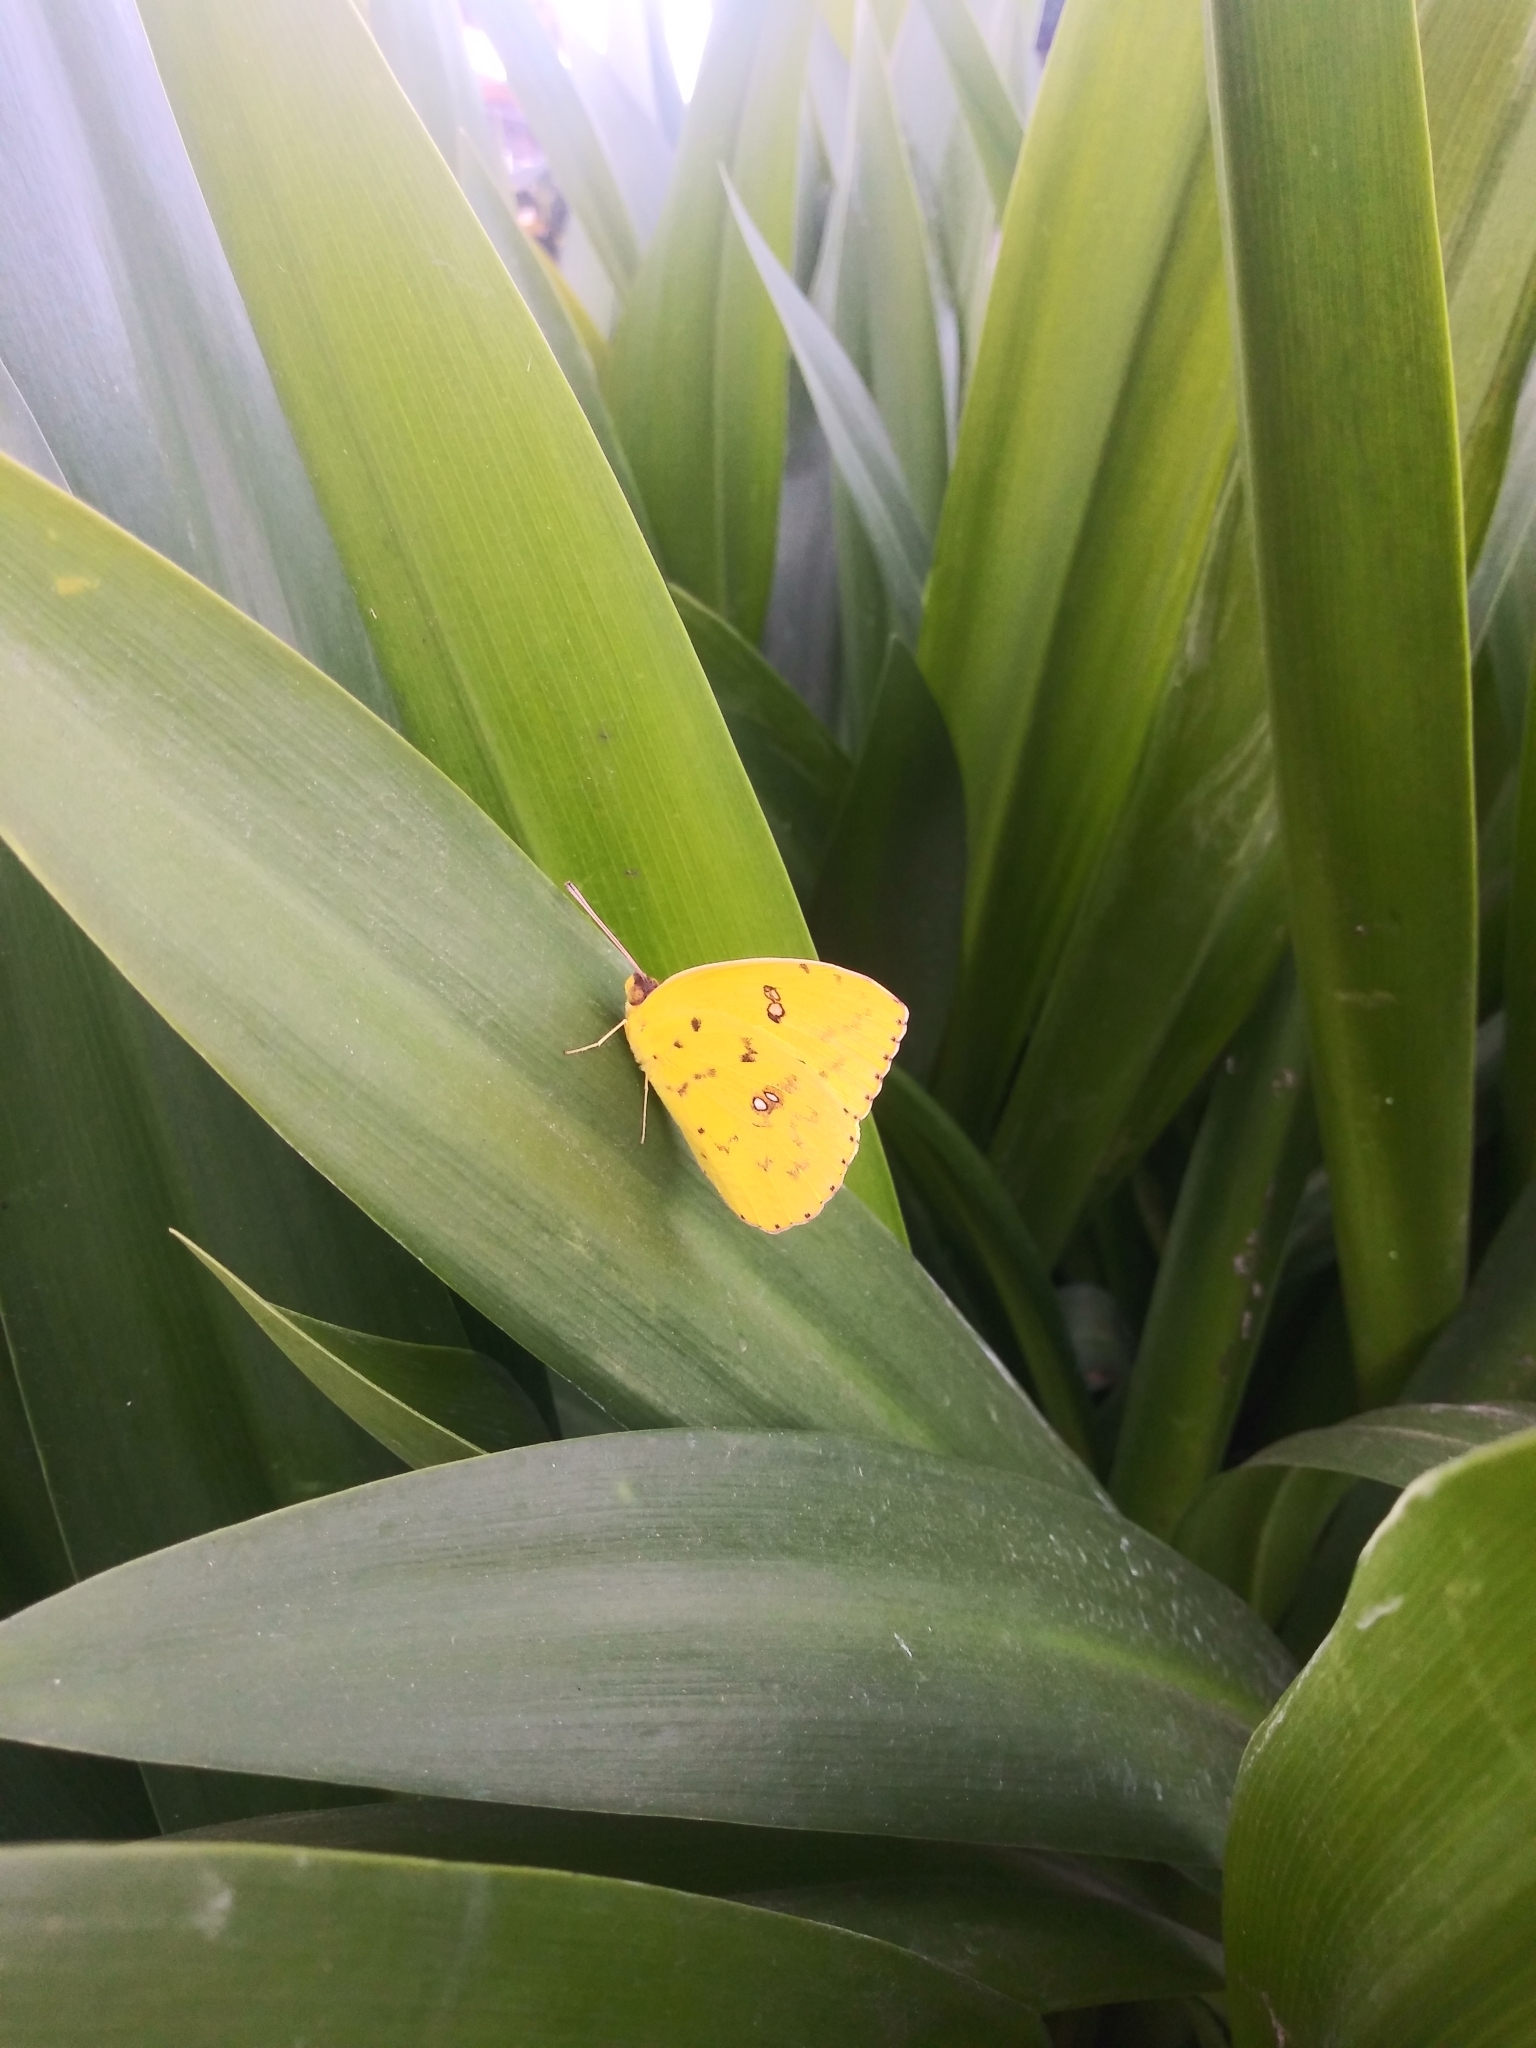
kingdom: Animalia
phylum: Arthropoda
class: Insecta
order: Lepidoptera
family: Pieridae
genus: Phoebis
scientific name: Phoebis sennae
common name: Cloudless sulphur
